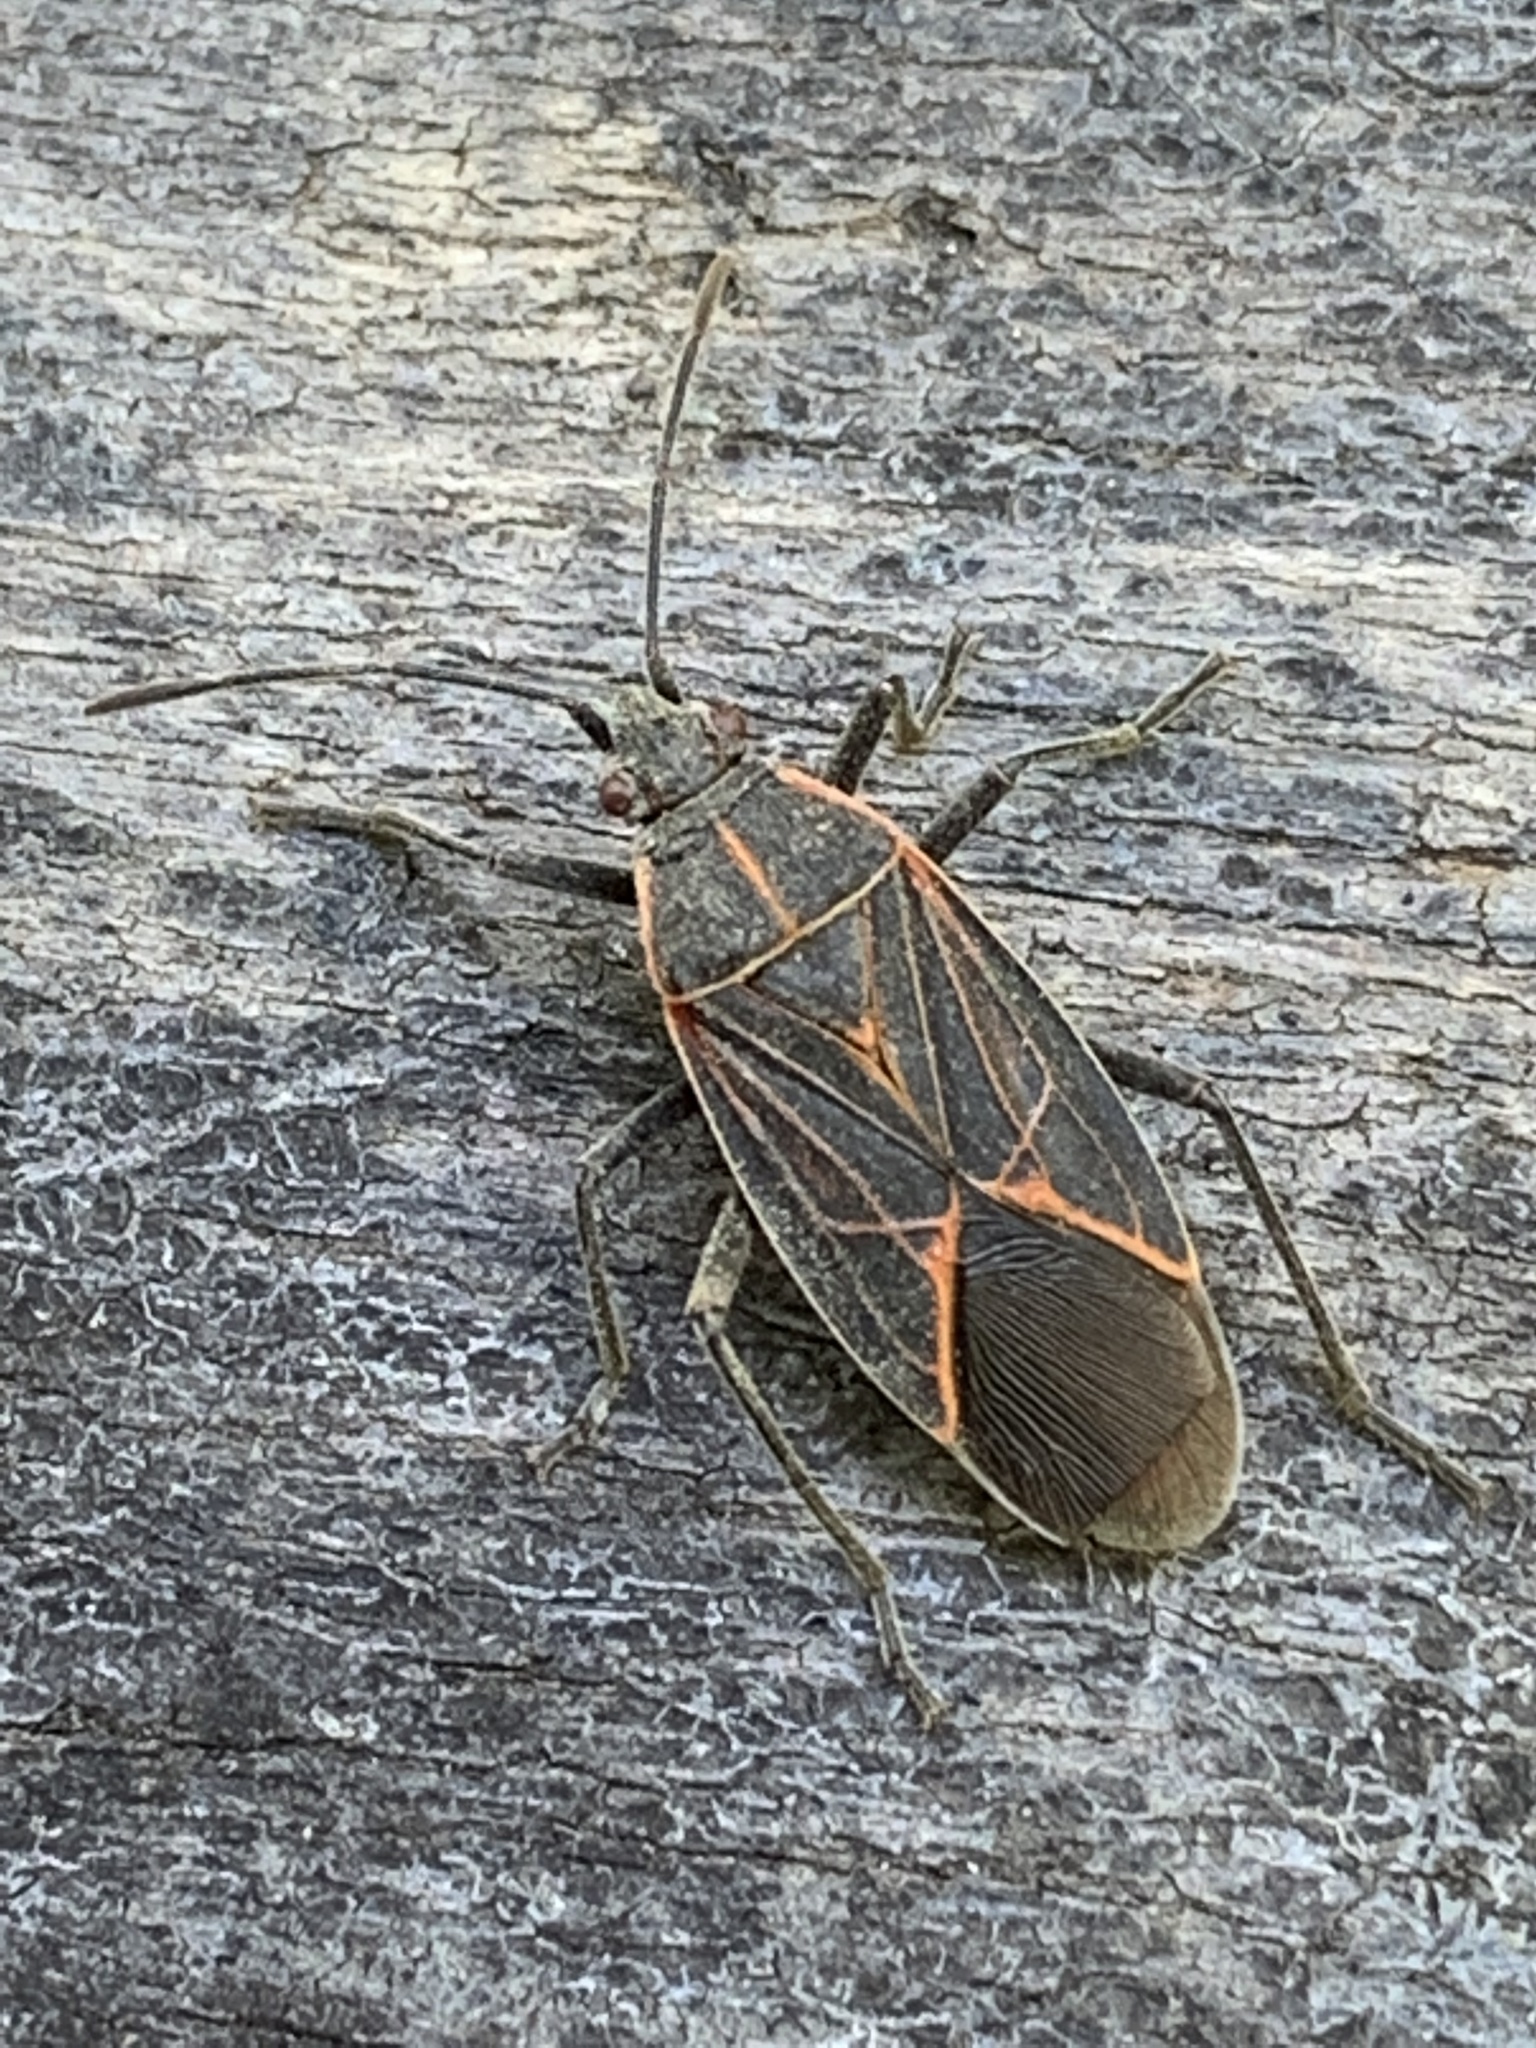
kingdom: Animalia
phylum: Arthropoda
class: Insecta
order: Hemiptera
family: Rhopalidae
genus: Boisea
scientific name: Boisea rubrolineata
